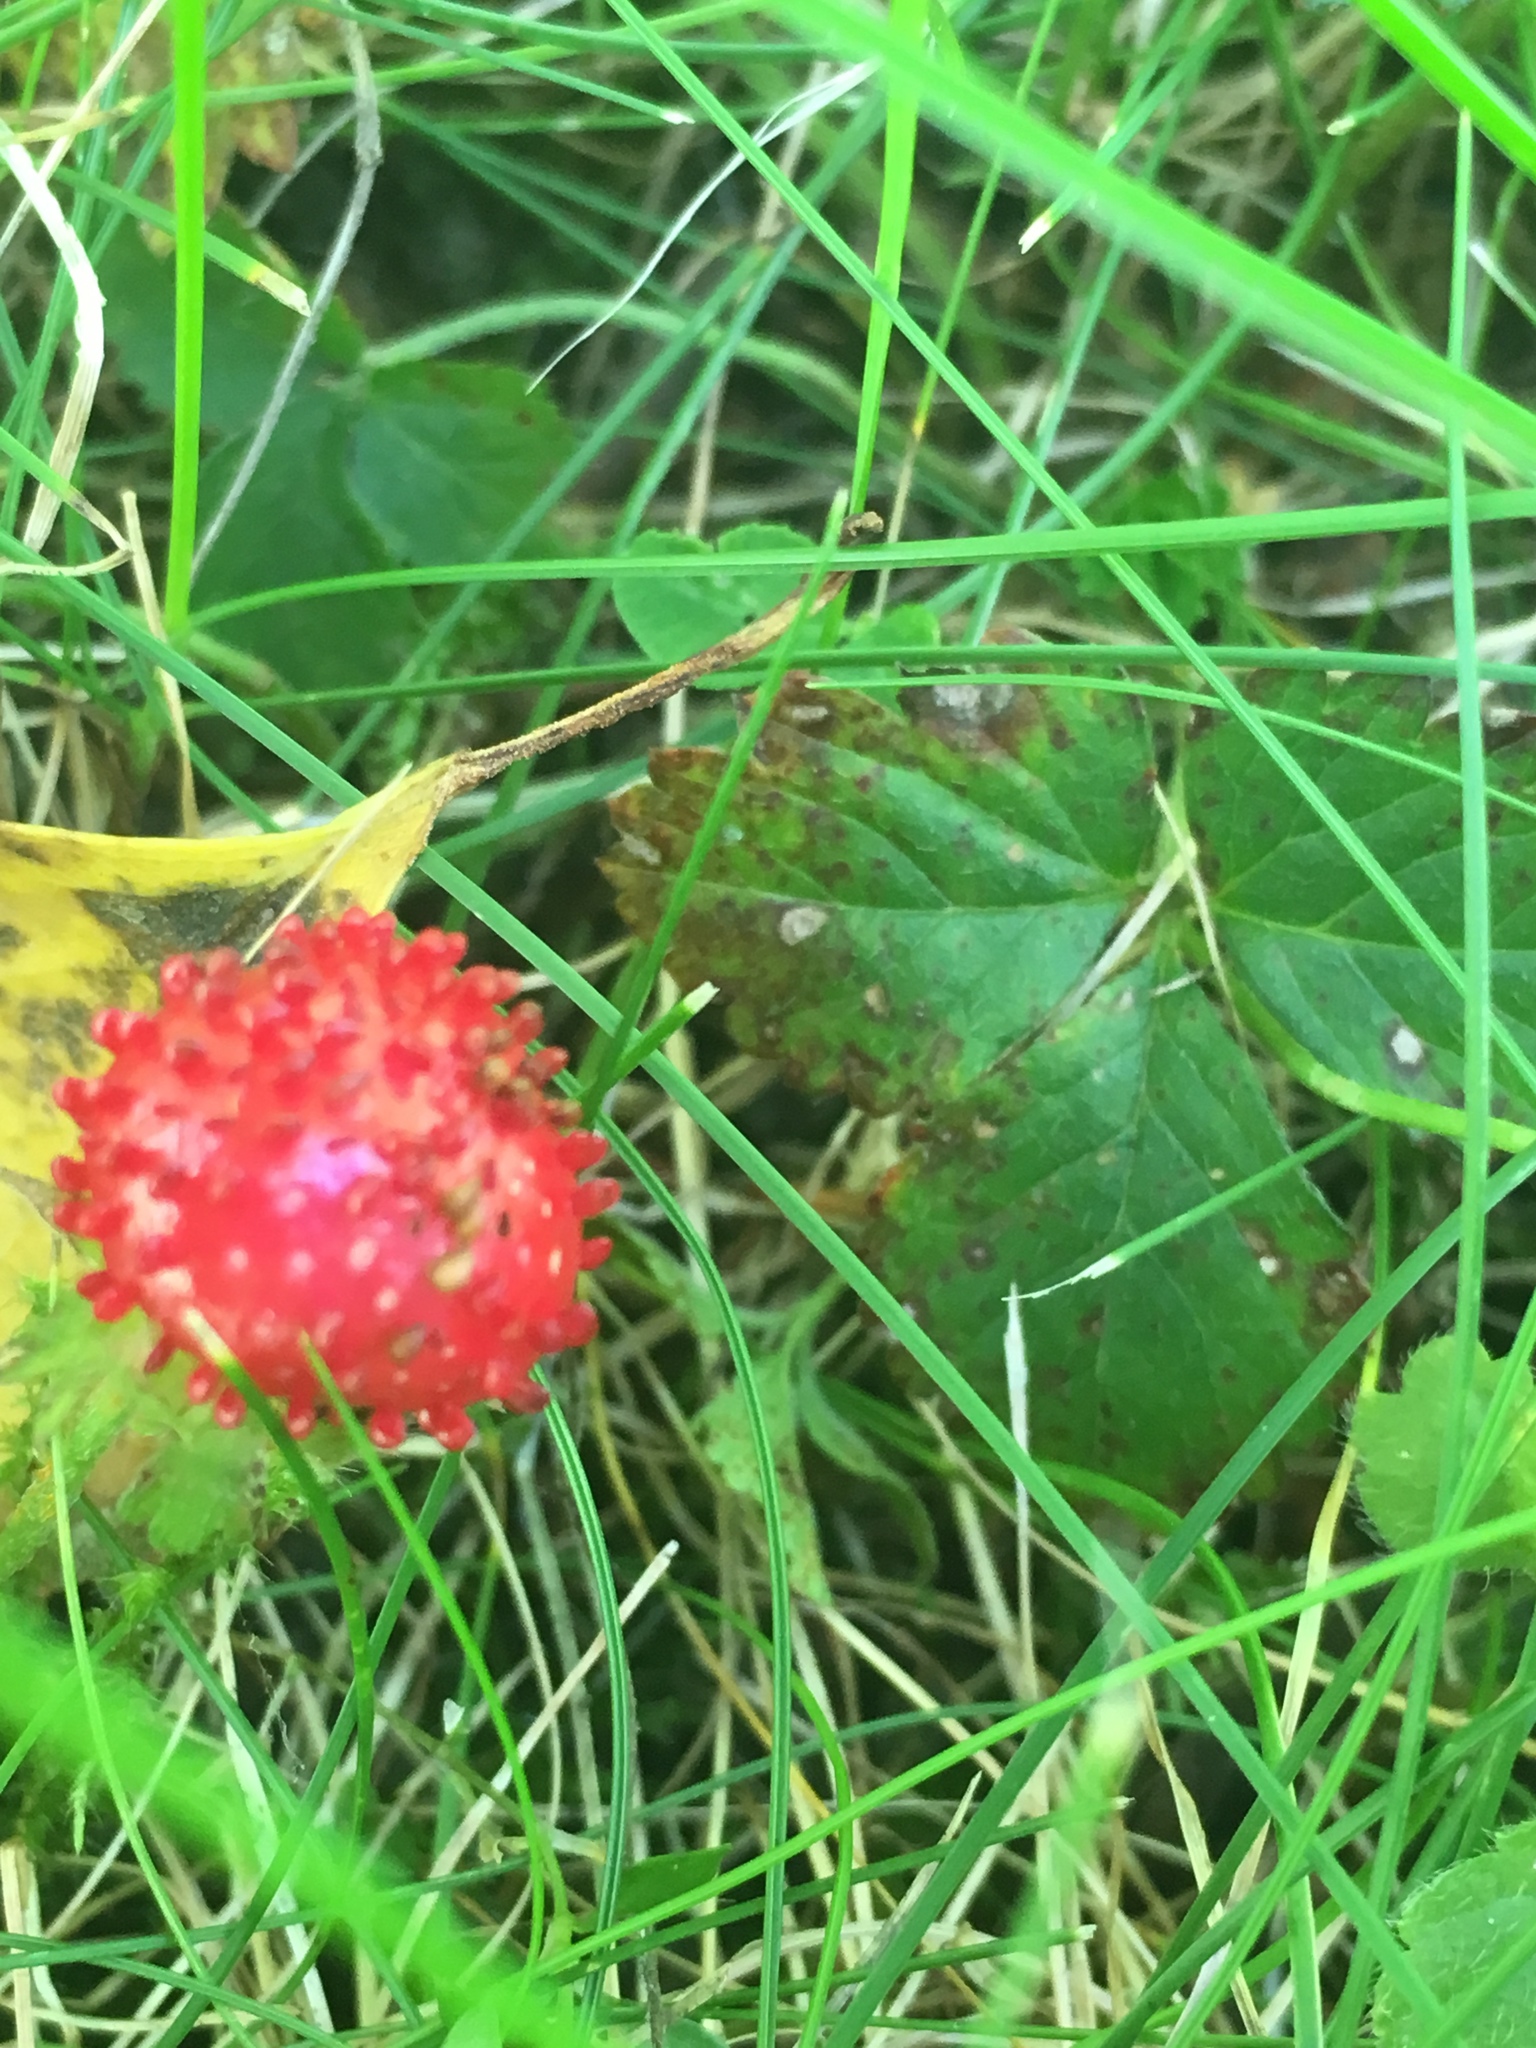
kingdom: Plantae
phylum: Tracheophyta
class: Magnoliopsida
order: Rosales
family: Rosaceae
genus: Potentilla
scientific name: Potentilla indica
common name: Yellow-flowered strawberry
